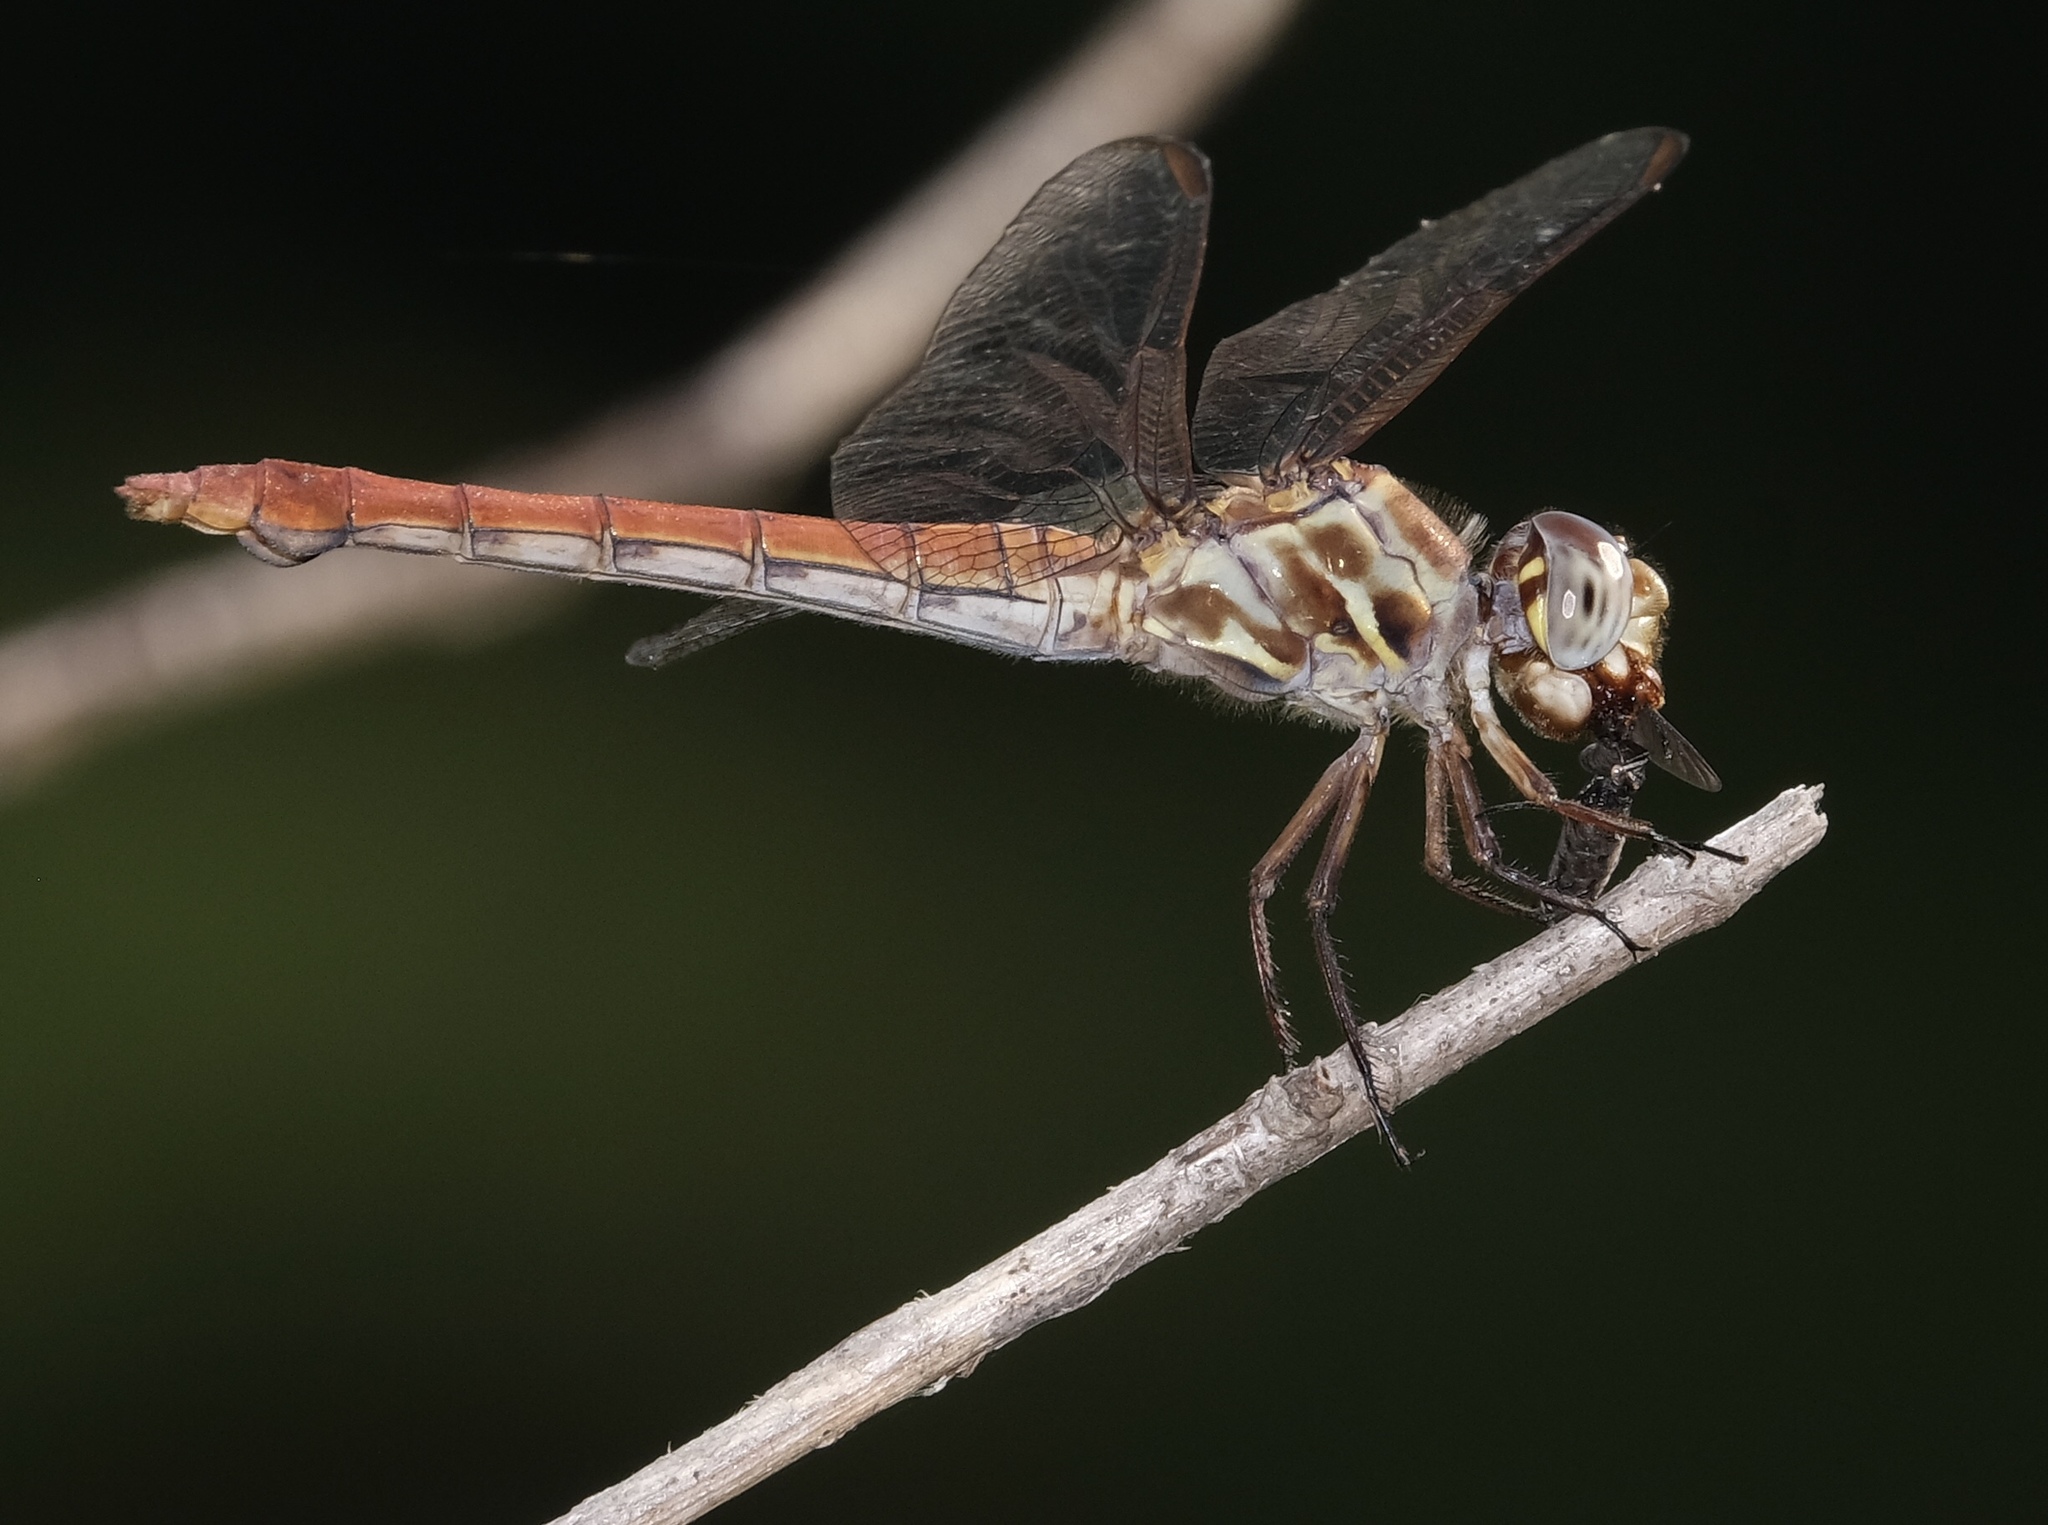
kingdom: Animalia
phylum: Arthropoda
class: Insecta
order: Odonata
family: Libellulidae
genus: Orthemis
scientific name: Orthemis ferruginea
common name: Roseate skimmer
